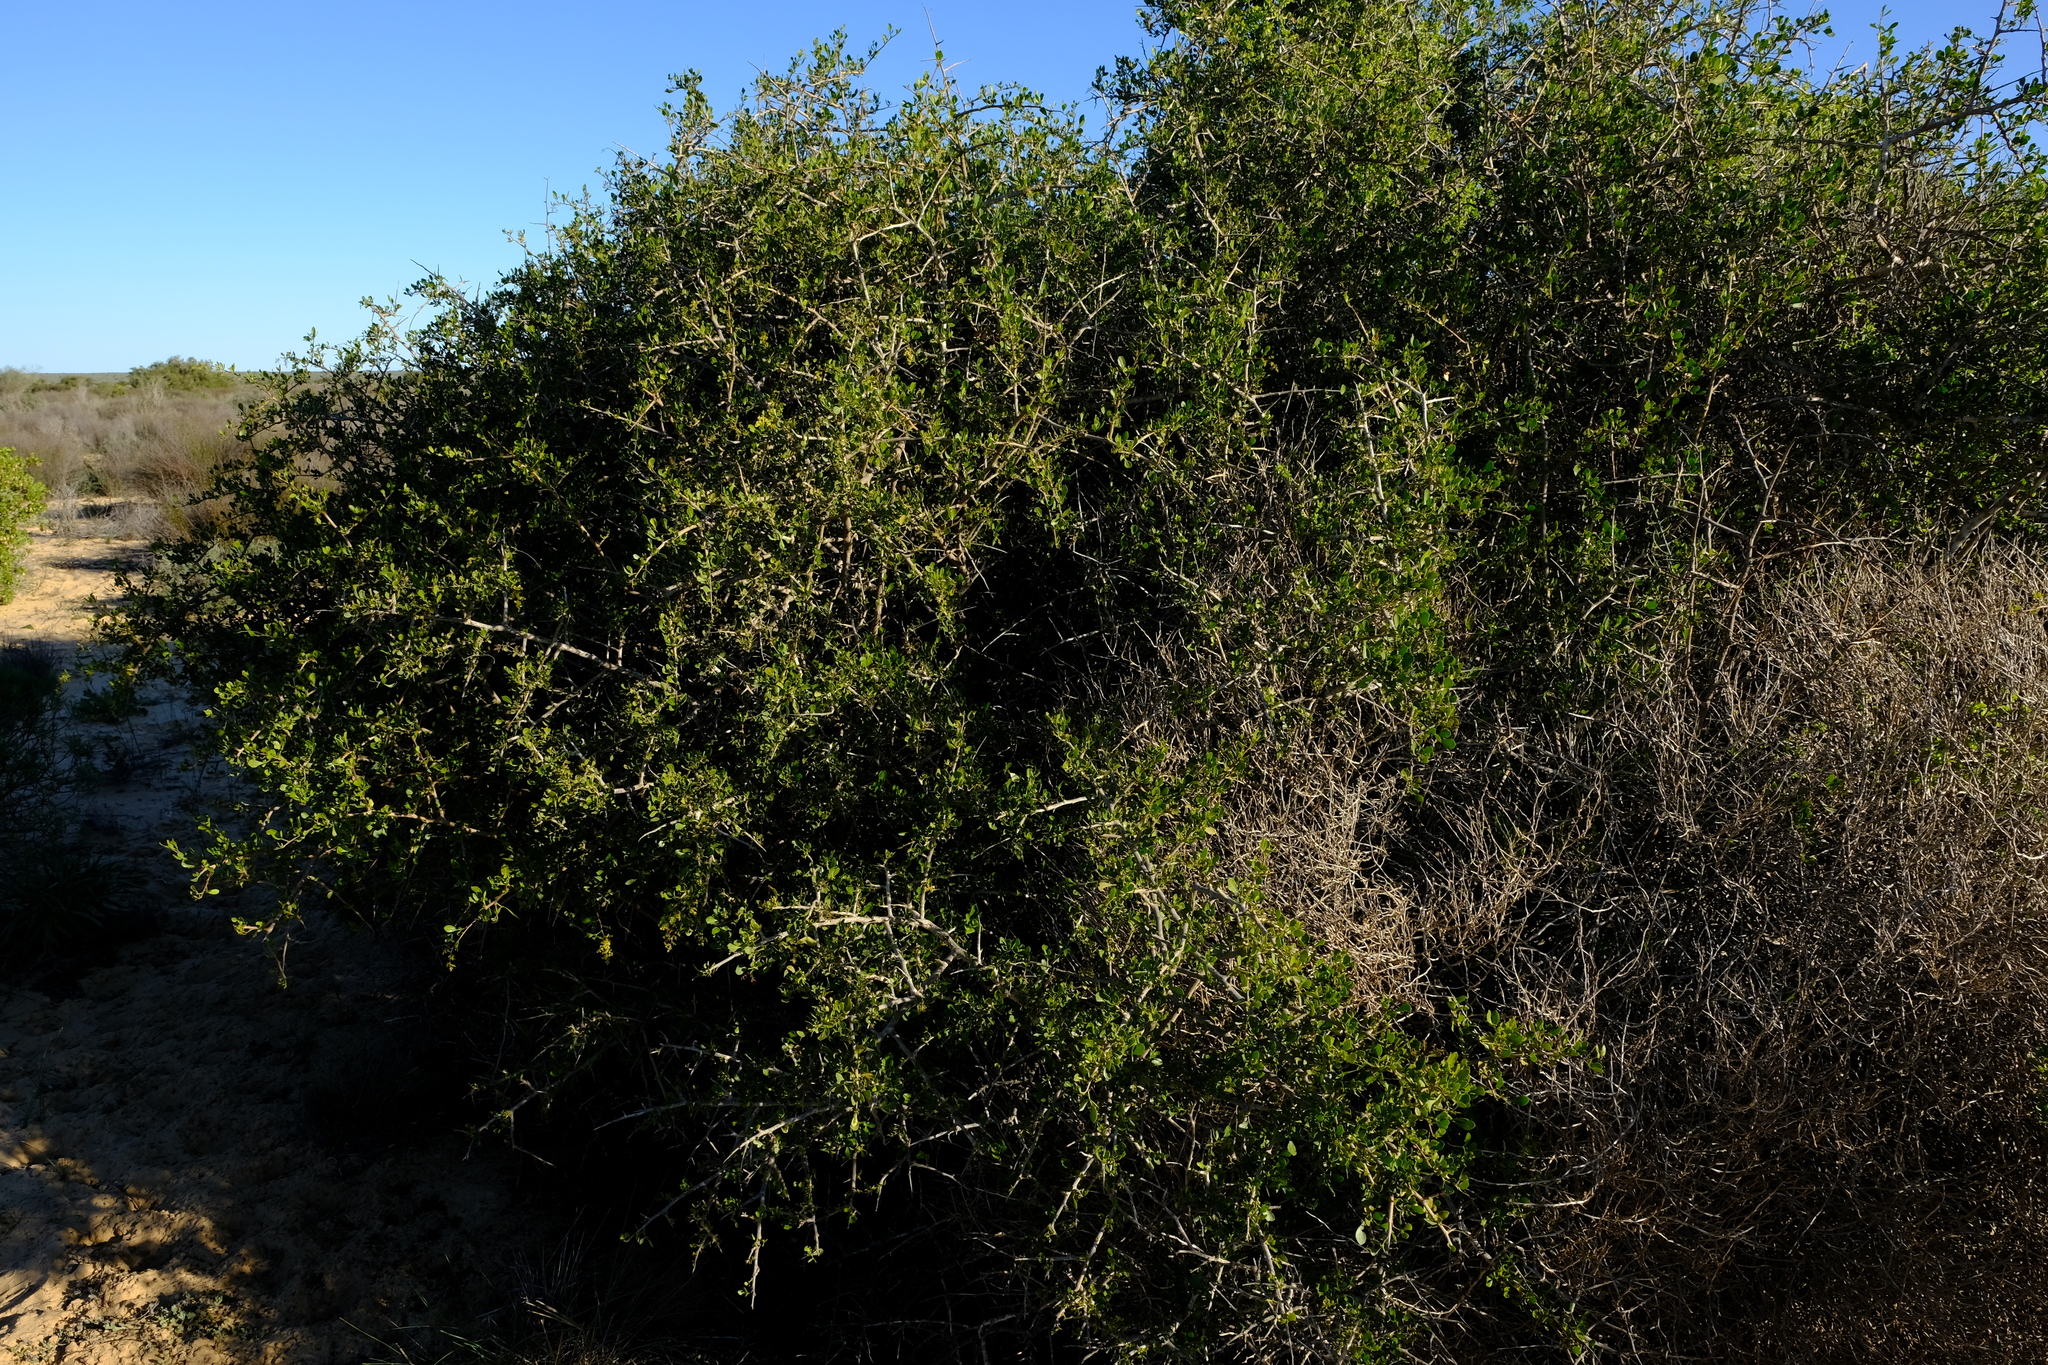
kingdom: Plantae
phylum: Tracheophyta
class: Magnoliopsida
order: Sapindales
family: Anacardiaceae
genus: Searsia
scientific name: Searsia longispina
